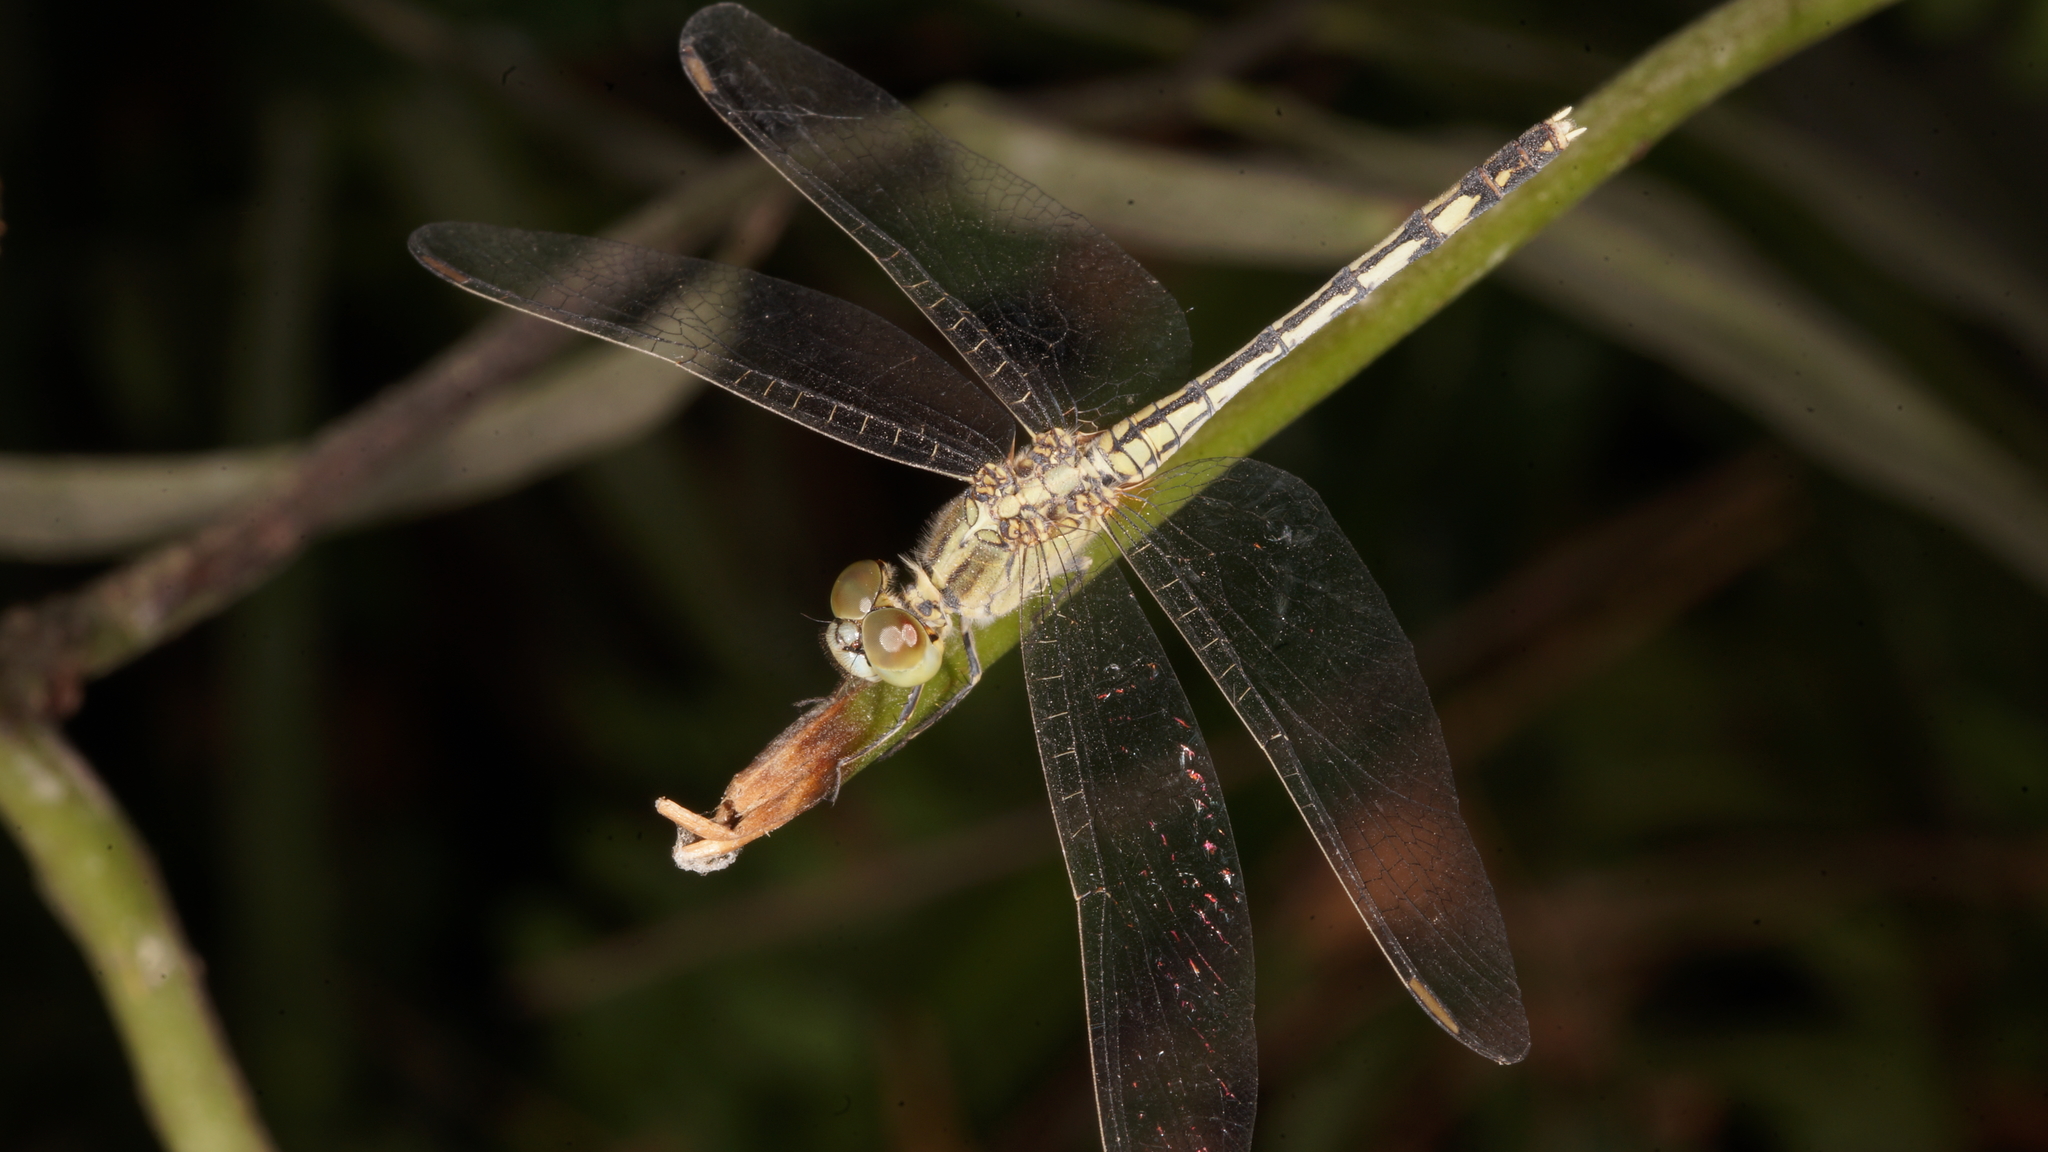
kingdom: Animalia
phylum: Arthropoda
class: Insecta
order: Odonata
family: Libellulidae
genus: Diplacodes
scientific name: Diplacodes trivialis
